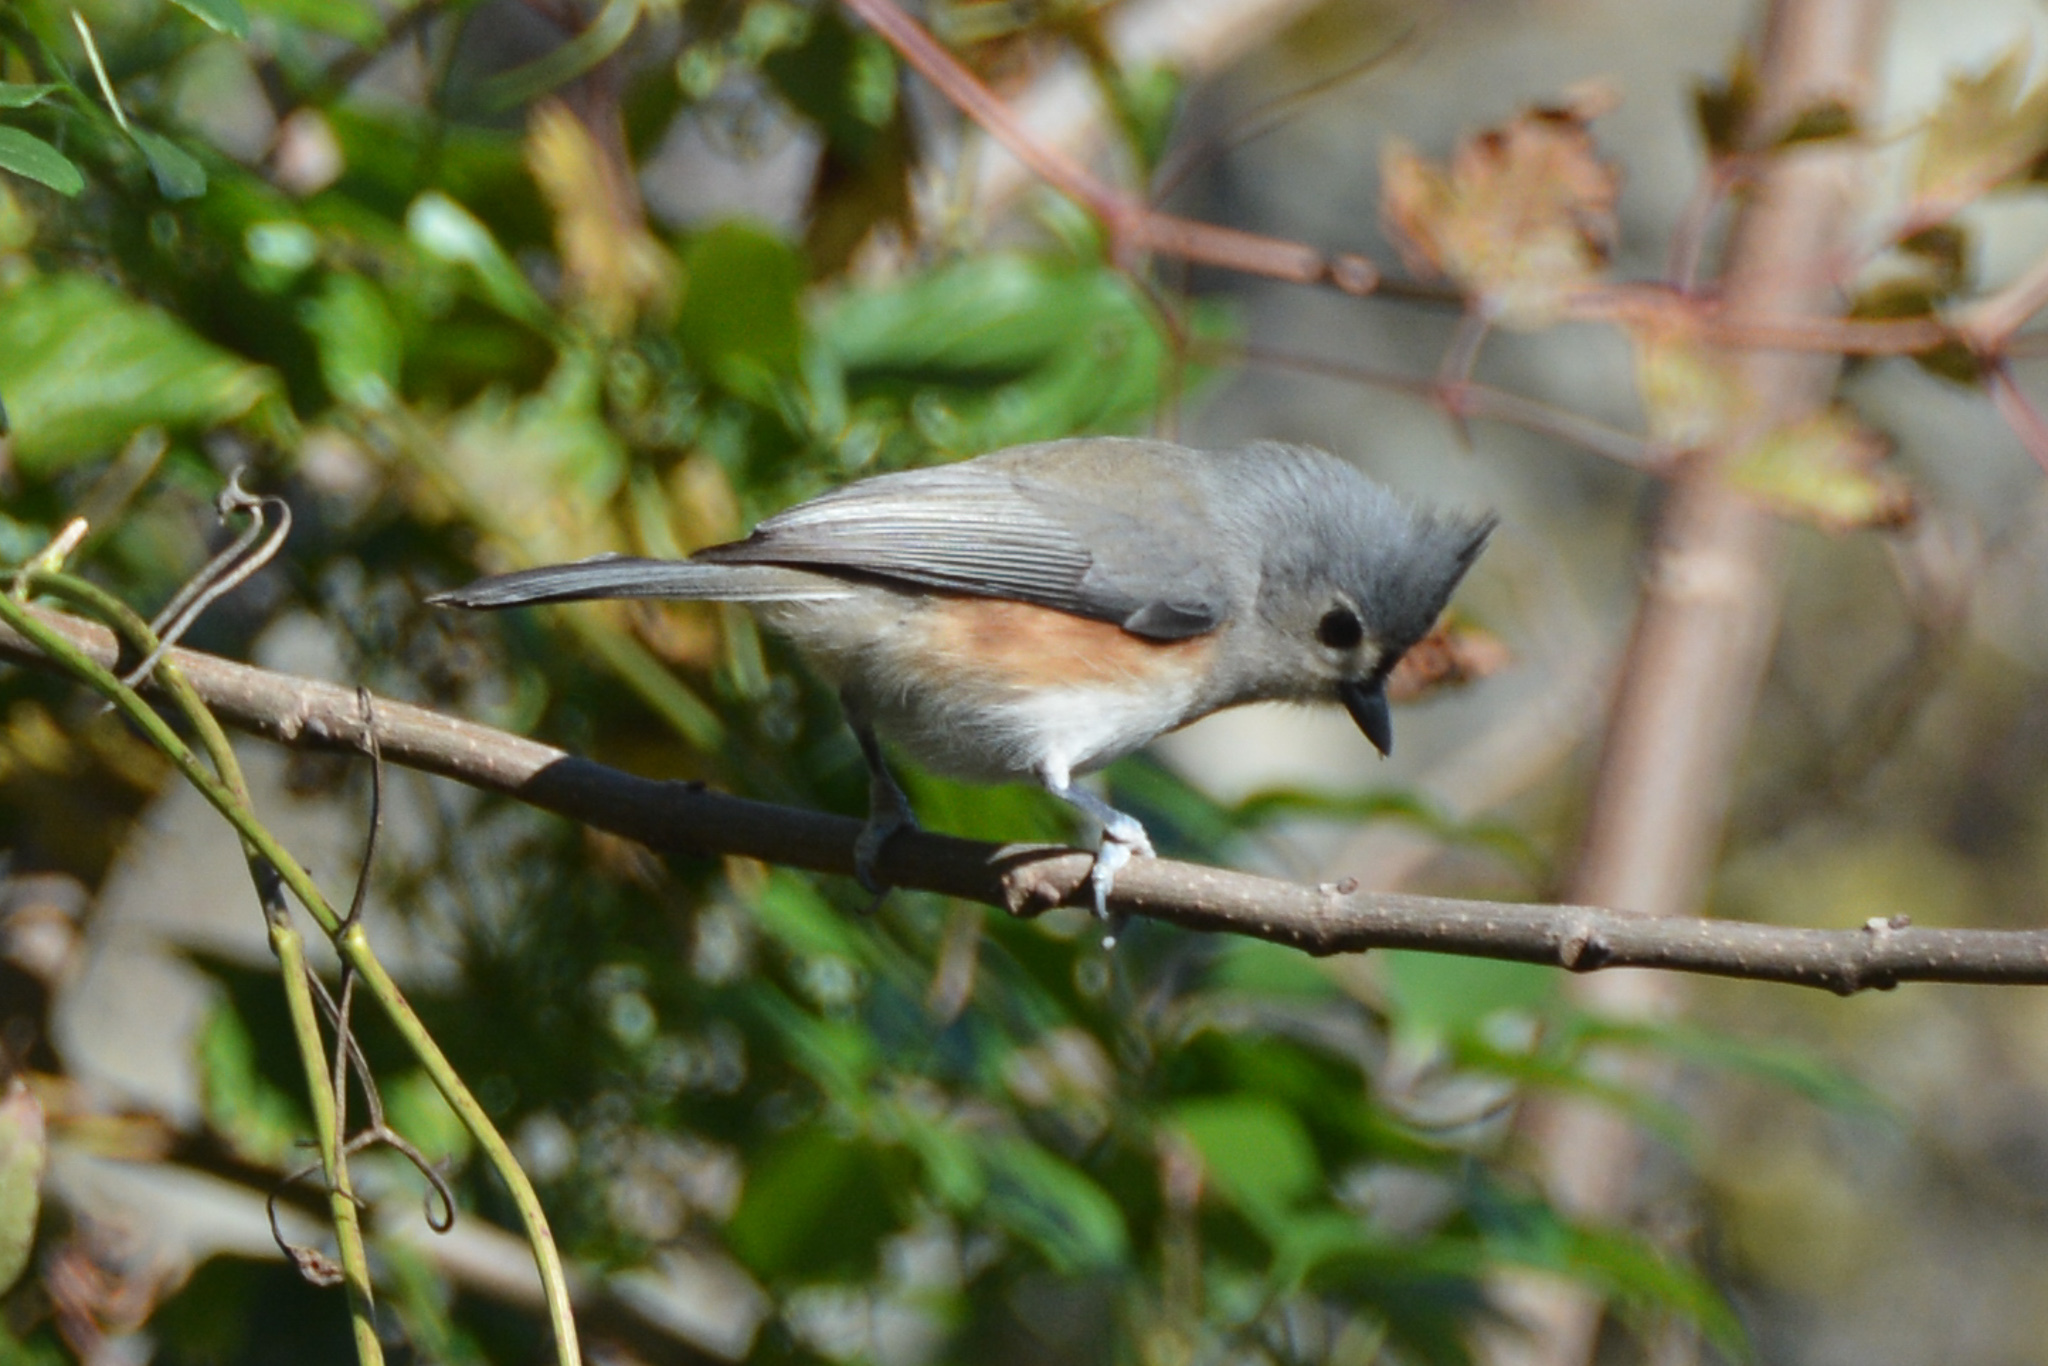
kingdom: Animalia
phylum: Chordata
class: Aves
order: Passeriformes
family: Paridae
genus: Baeolophus
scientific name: Baeolophus bicolor
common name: Tufted titmouse
